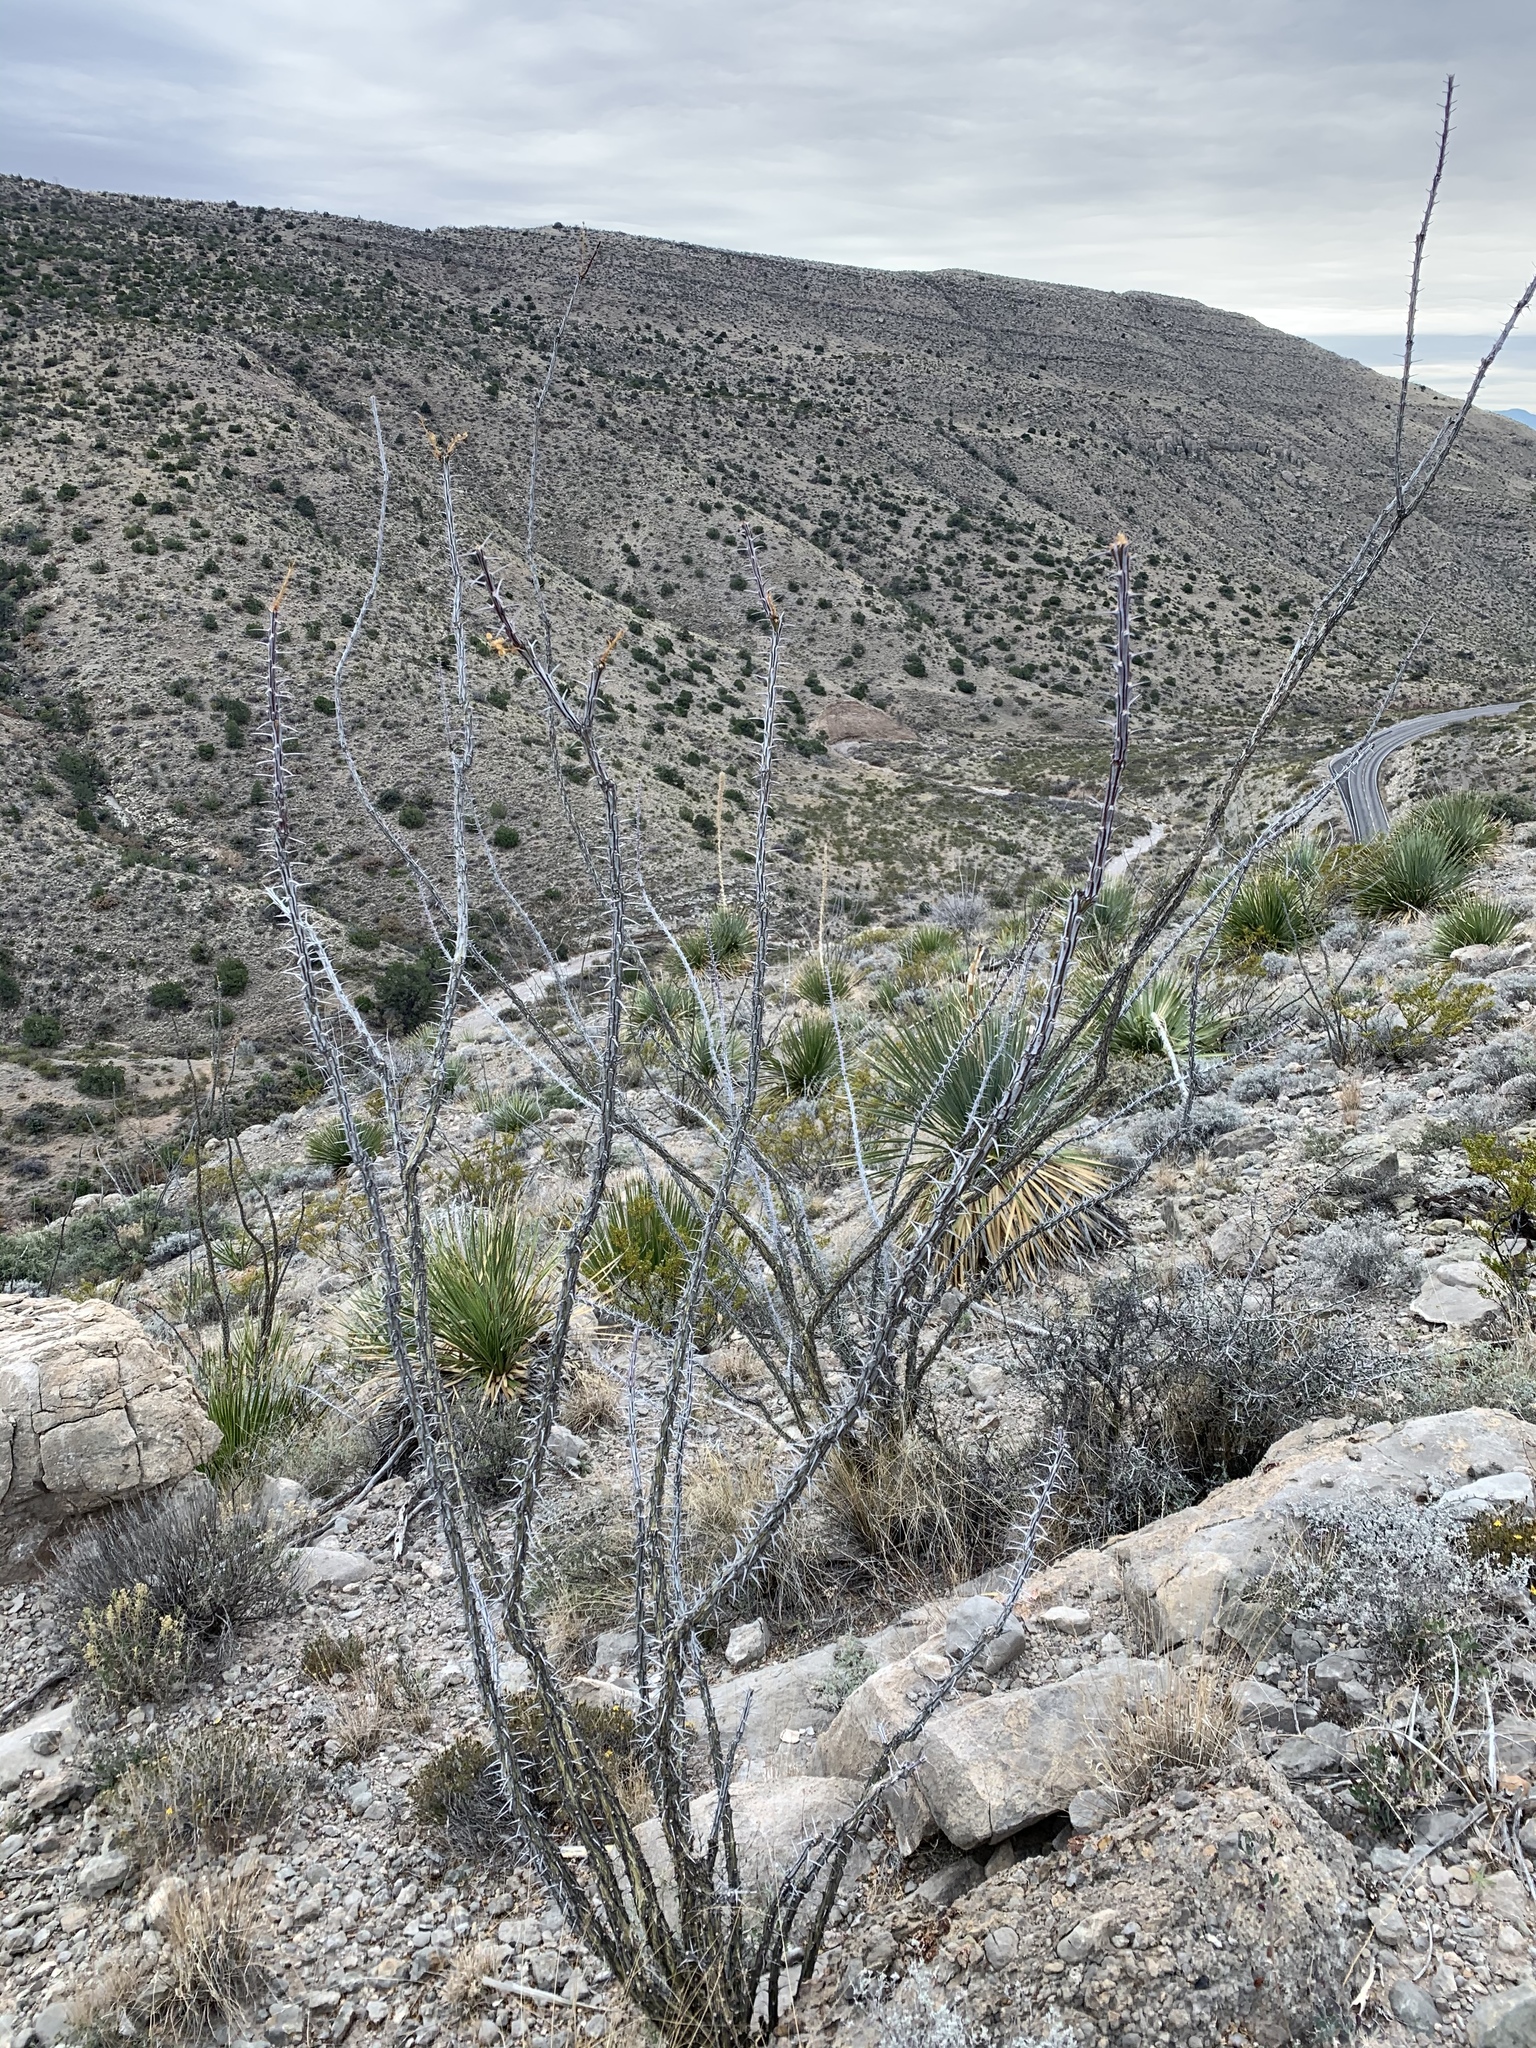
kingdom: Plantae
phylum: Tracheophyta
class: Magnoliopsida
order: Ericales
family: Fouquieriaceae
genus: Fouquieria
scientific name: Fouquieria splendens
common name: Vine-cactus
